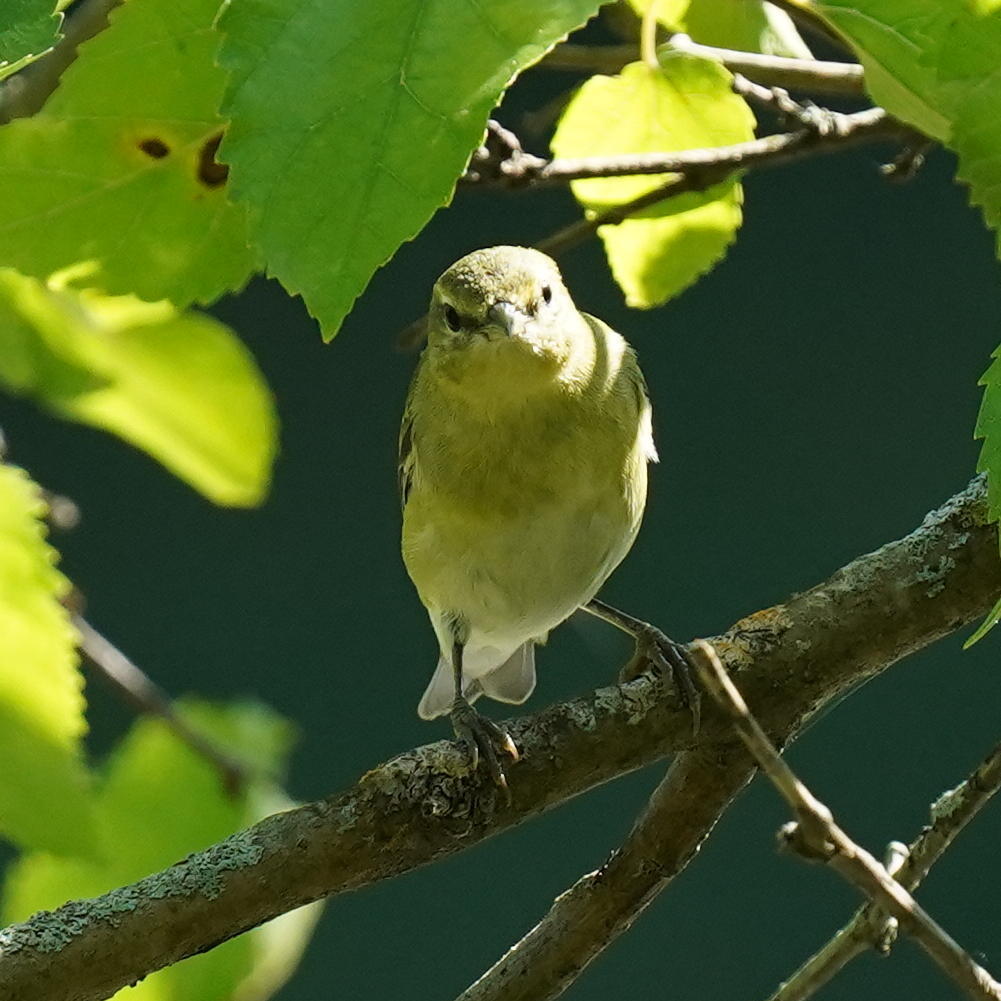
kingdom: Animalia
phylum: Chordata
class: Aves
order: Passeriformes
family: Parulidae
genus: Leiothlypis
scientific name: Leiothlypis peregrina
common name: Tennessee warbler
